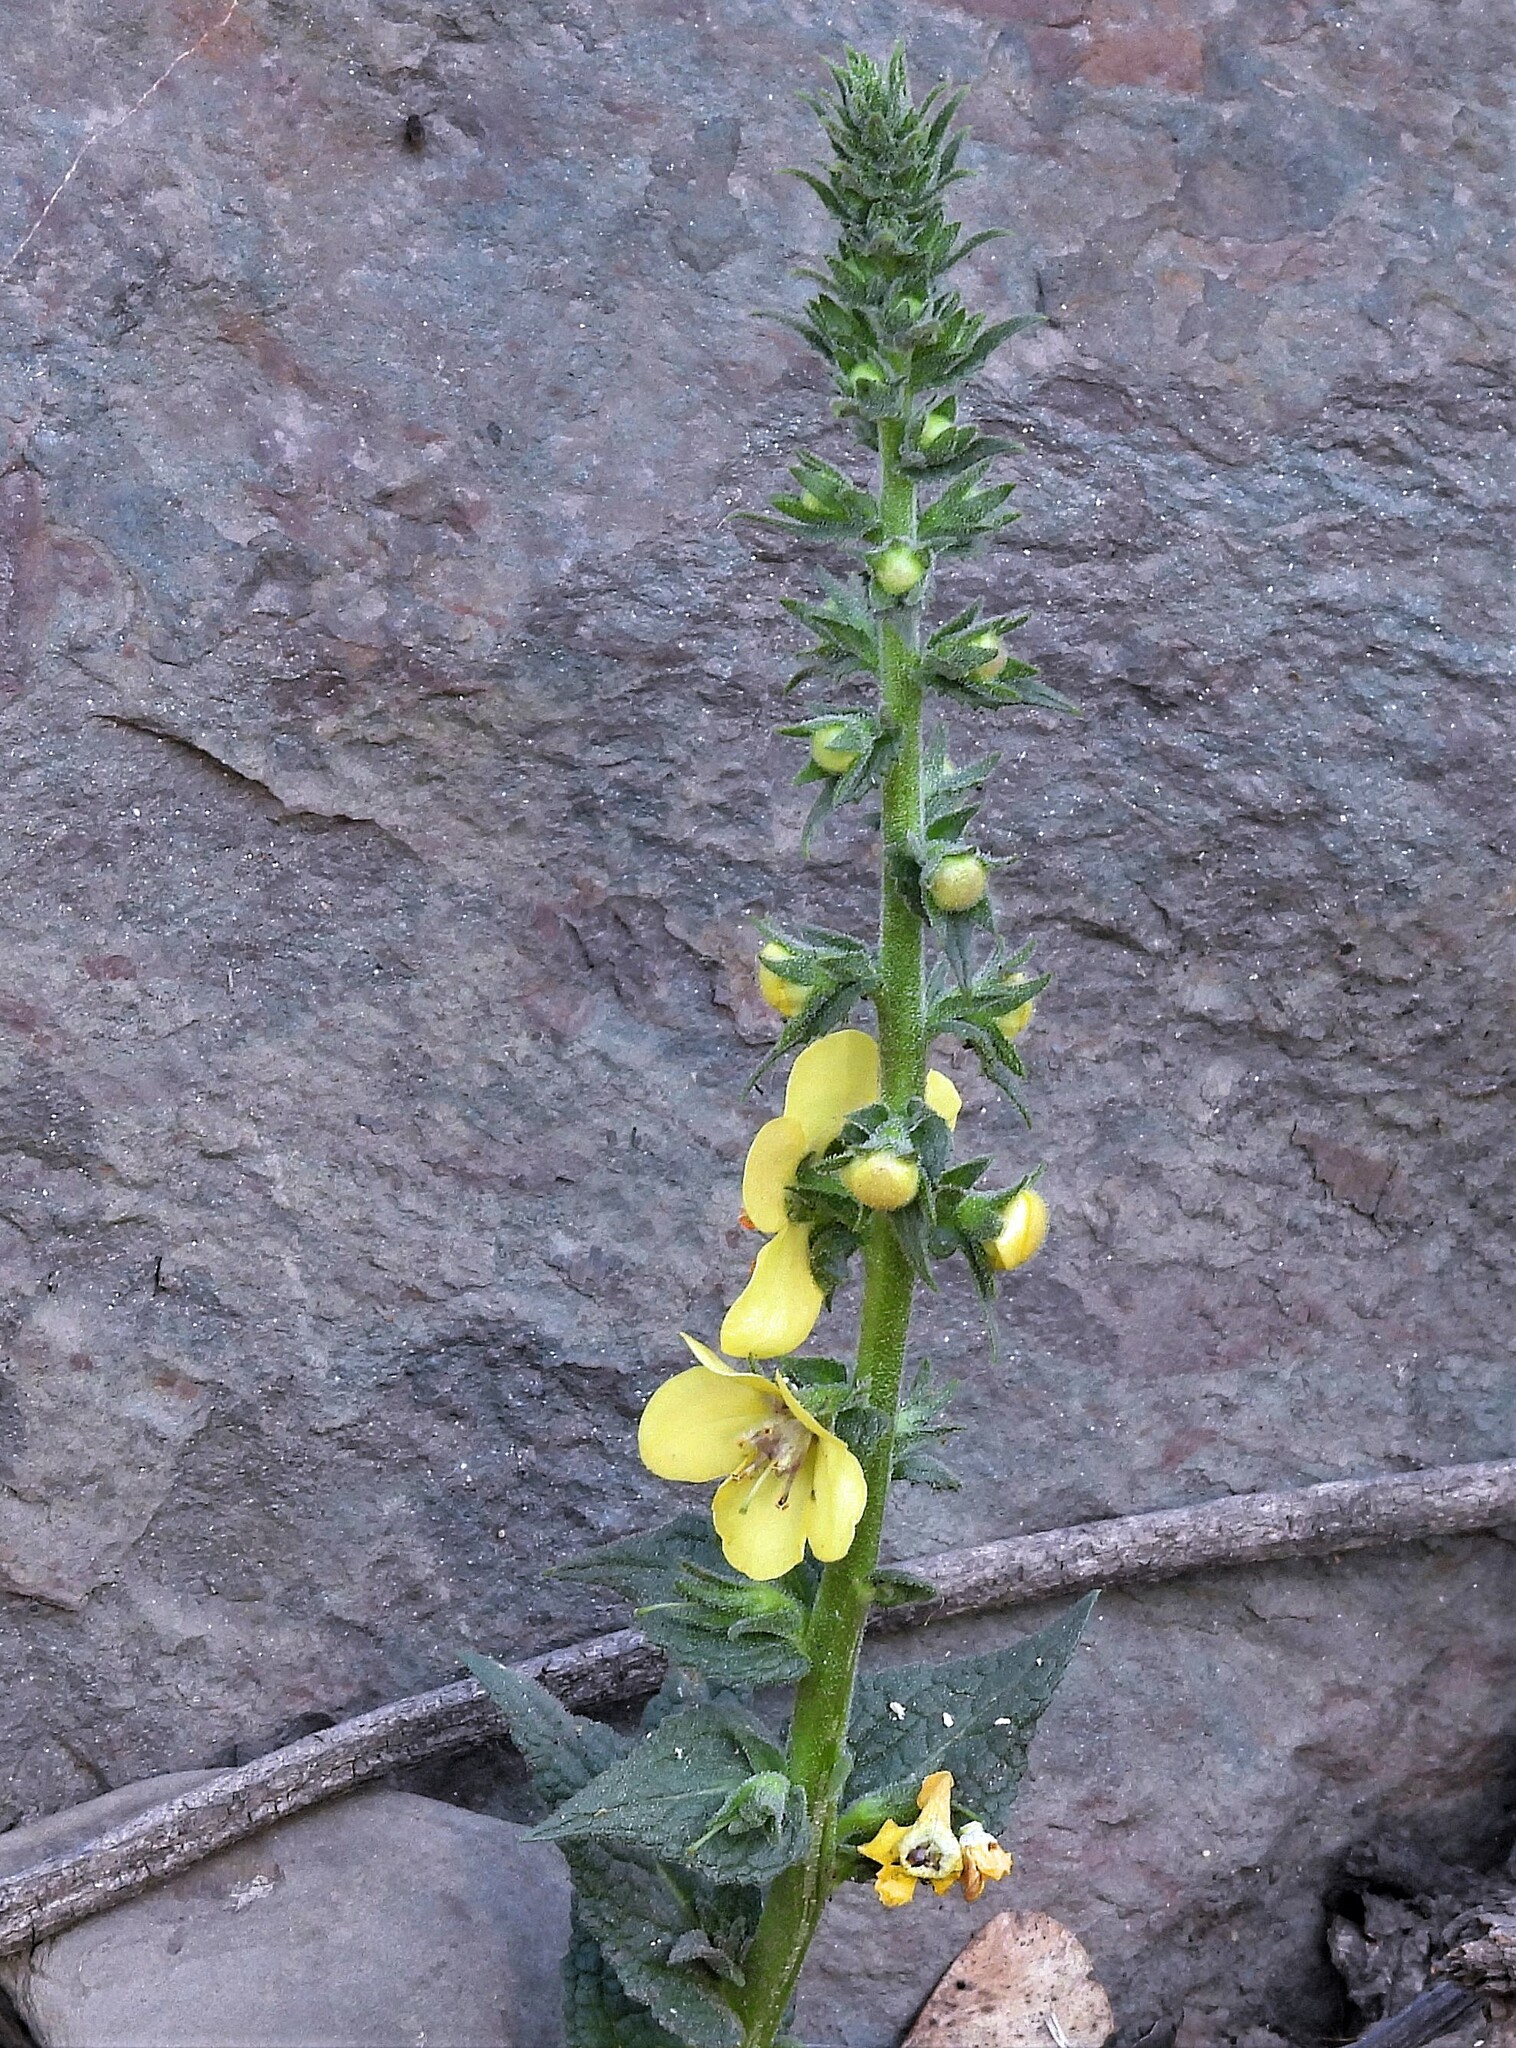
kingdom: Plantae
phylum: Tracheophyta
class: Magnoliopsida
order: Lamiales
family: Scrophulariaceae
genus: Verbascum
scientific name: Verbascum virgatum
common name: Twiggy mullein
